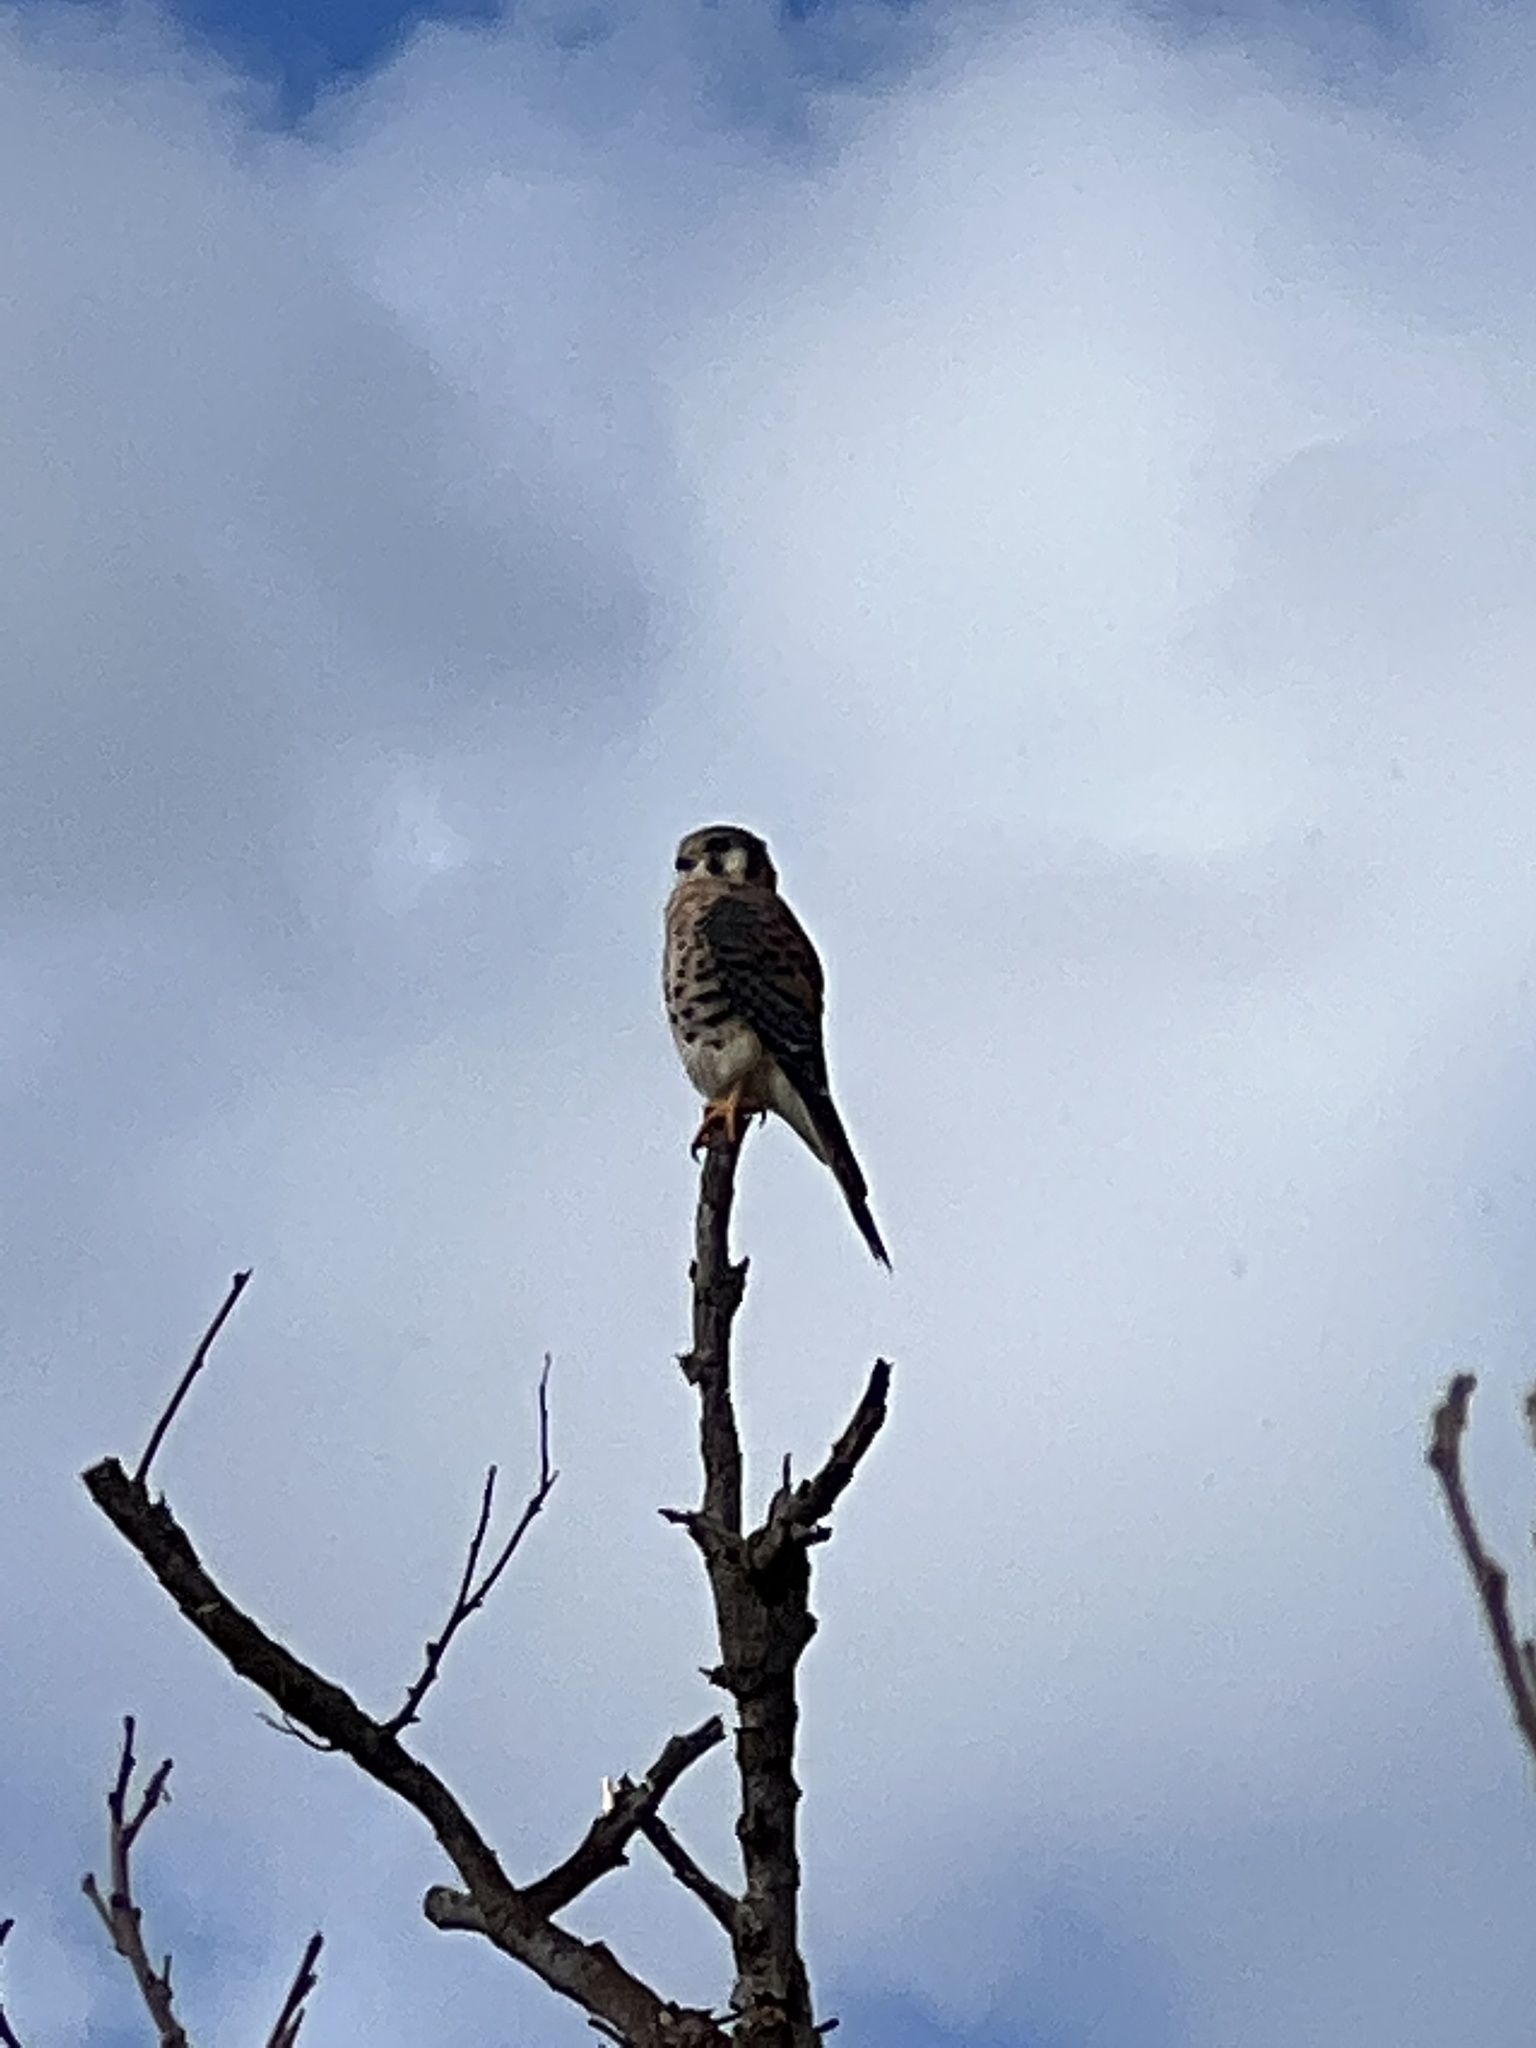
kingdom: Animalia
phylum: Chordata
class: Aves
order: Falconiformes
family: Falconidae
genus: Falco
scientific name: Falco sparverius
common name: American kestrel
